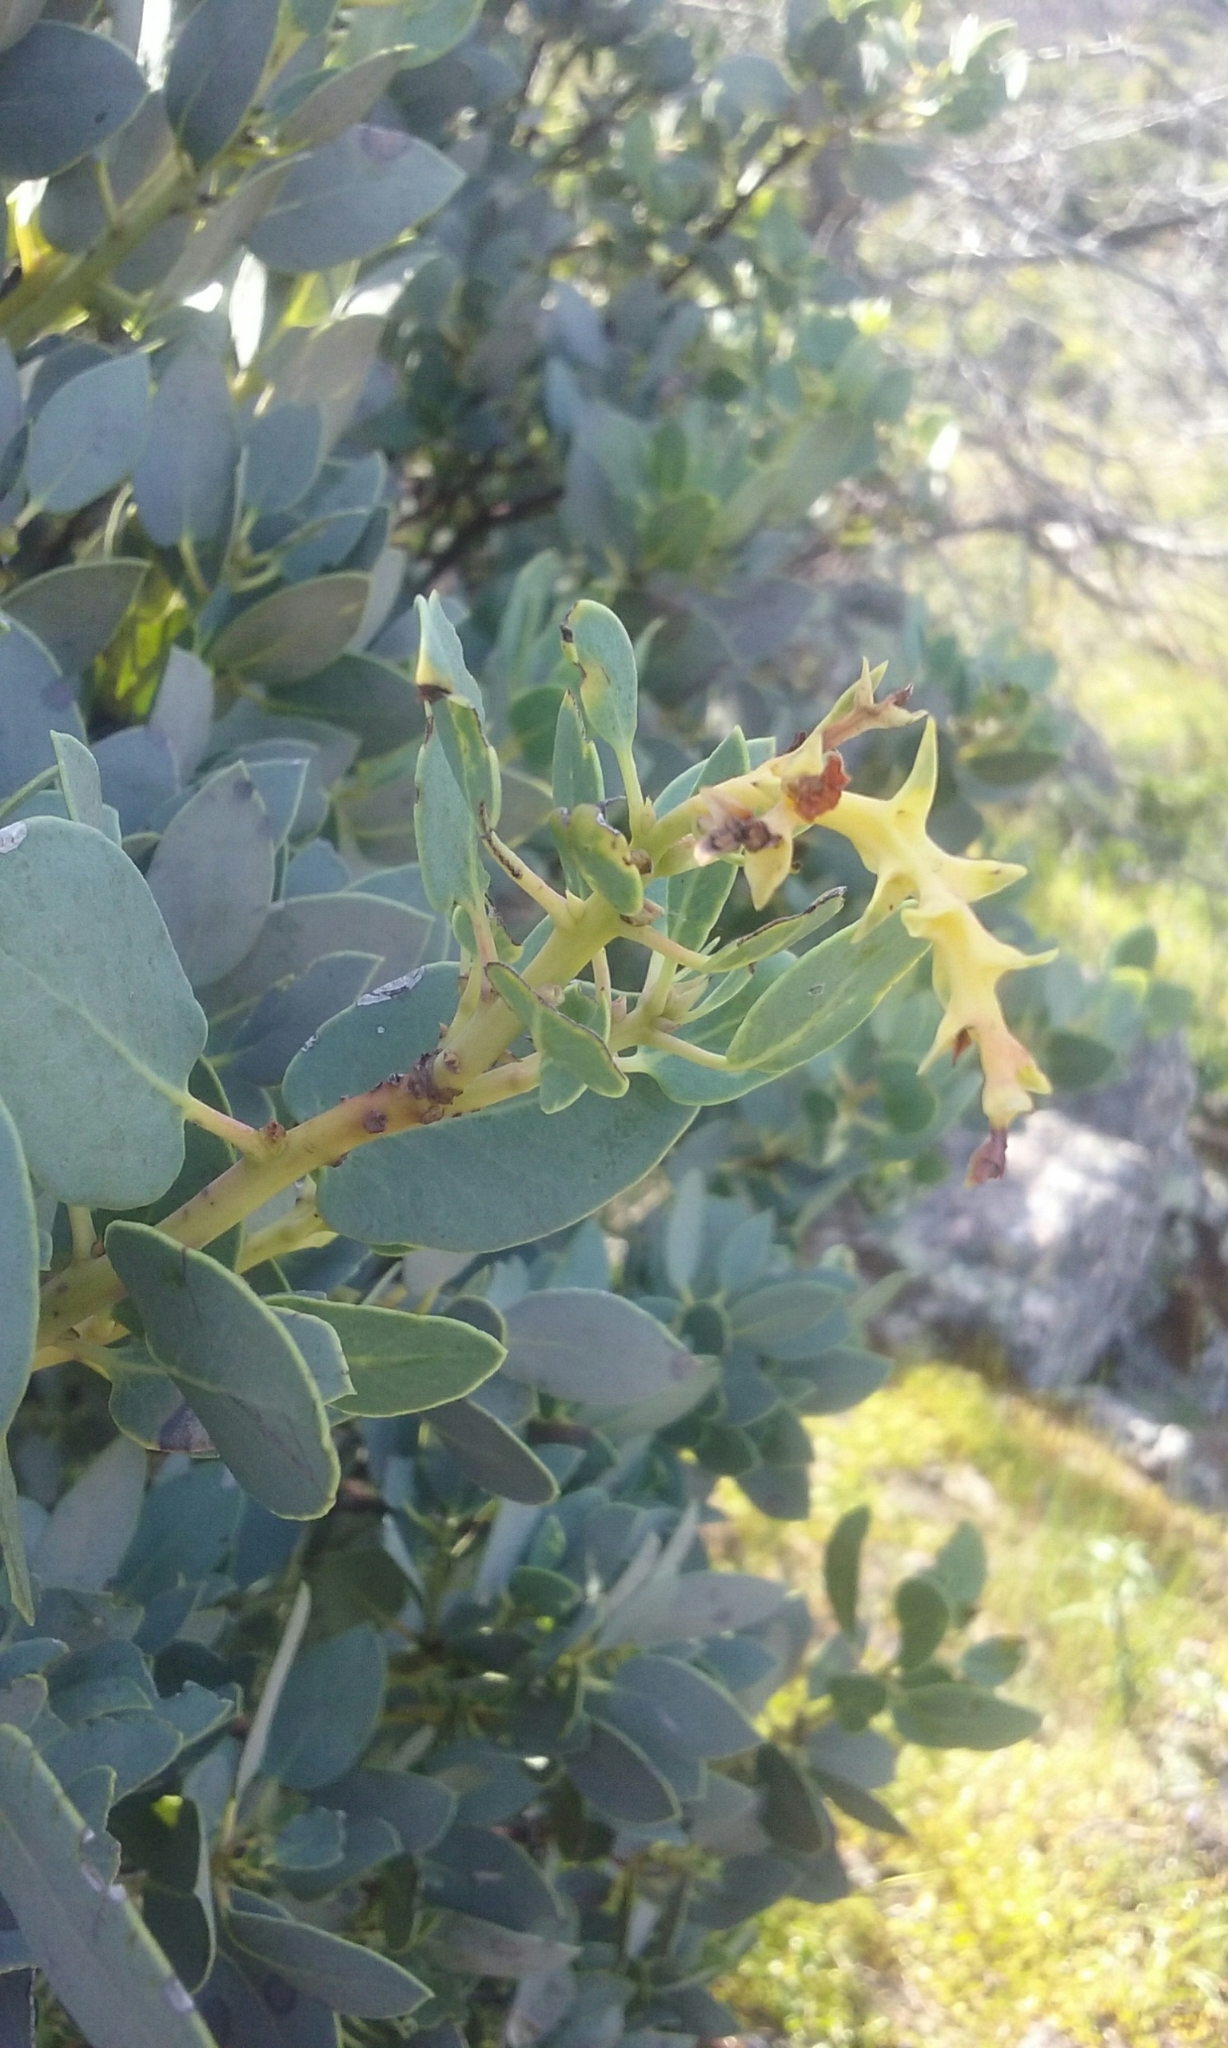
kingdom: Plantae
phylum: Tracheophyta
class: Magnoliopsida
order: Ericales
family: Ericaceae
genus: Arctostaphylos
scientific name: Arctostaphylos glauca
